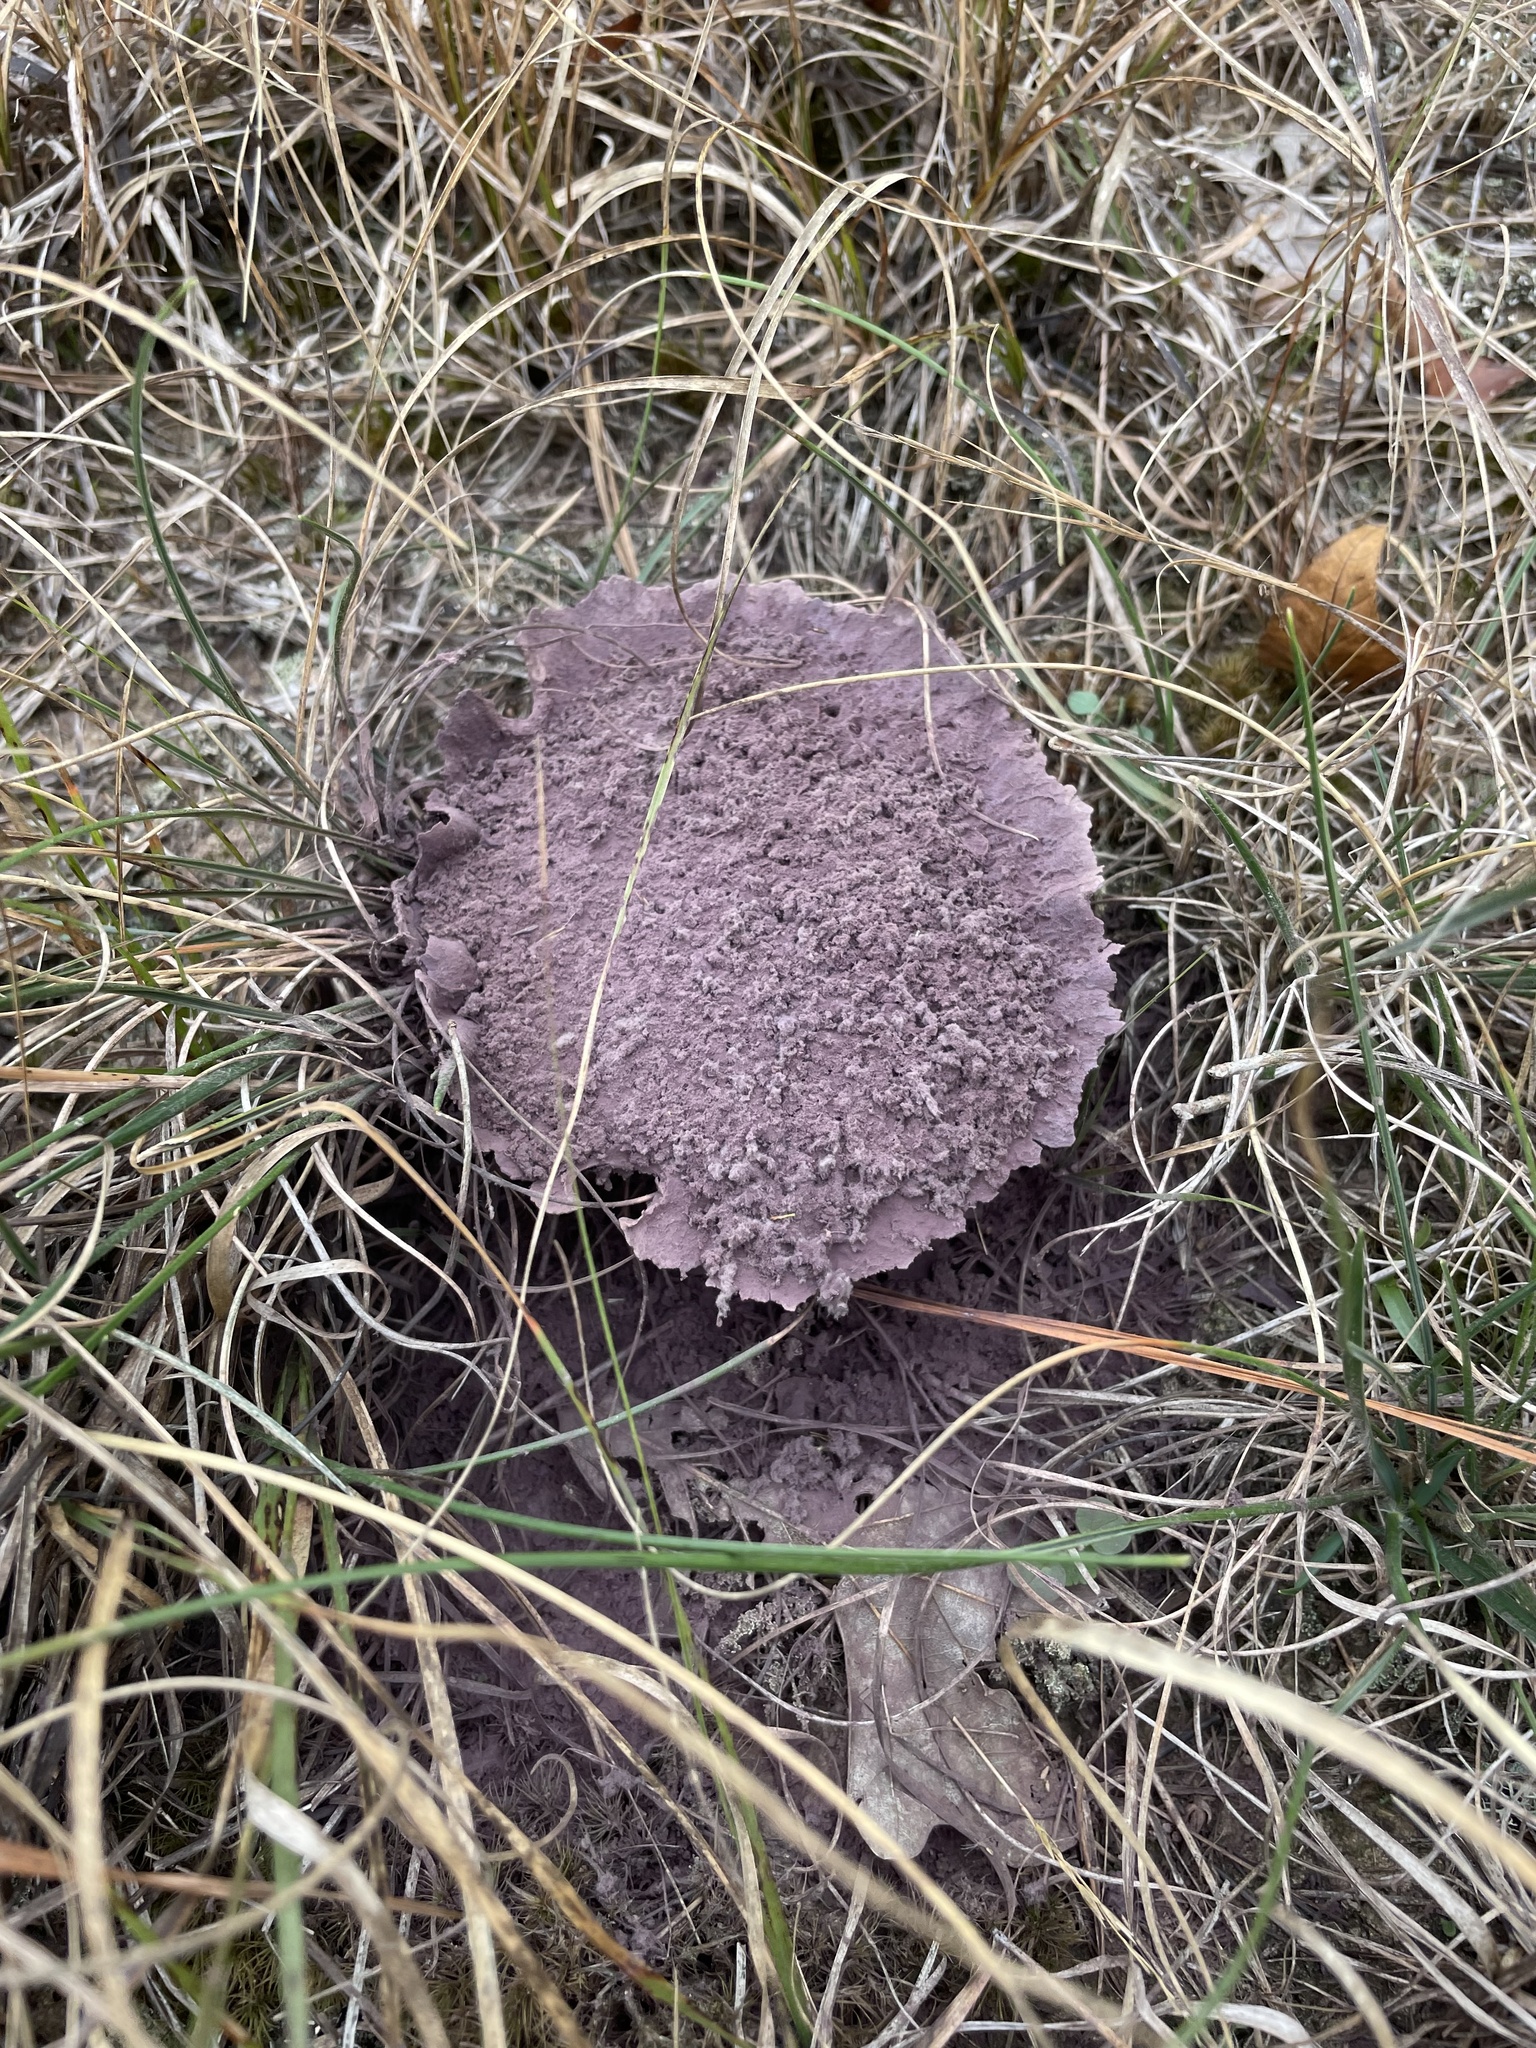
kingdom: Fungi
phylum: Basidiomycota
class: Agaricomycetes
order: Agaricales
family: Lycoperdaceae
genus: Calvatia
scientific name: Calvatia cyathiformis
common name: Purple-spored puffball
